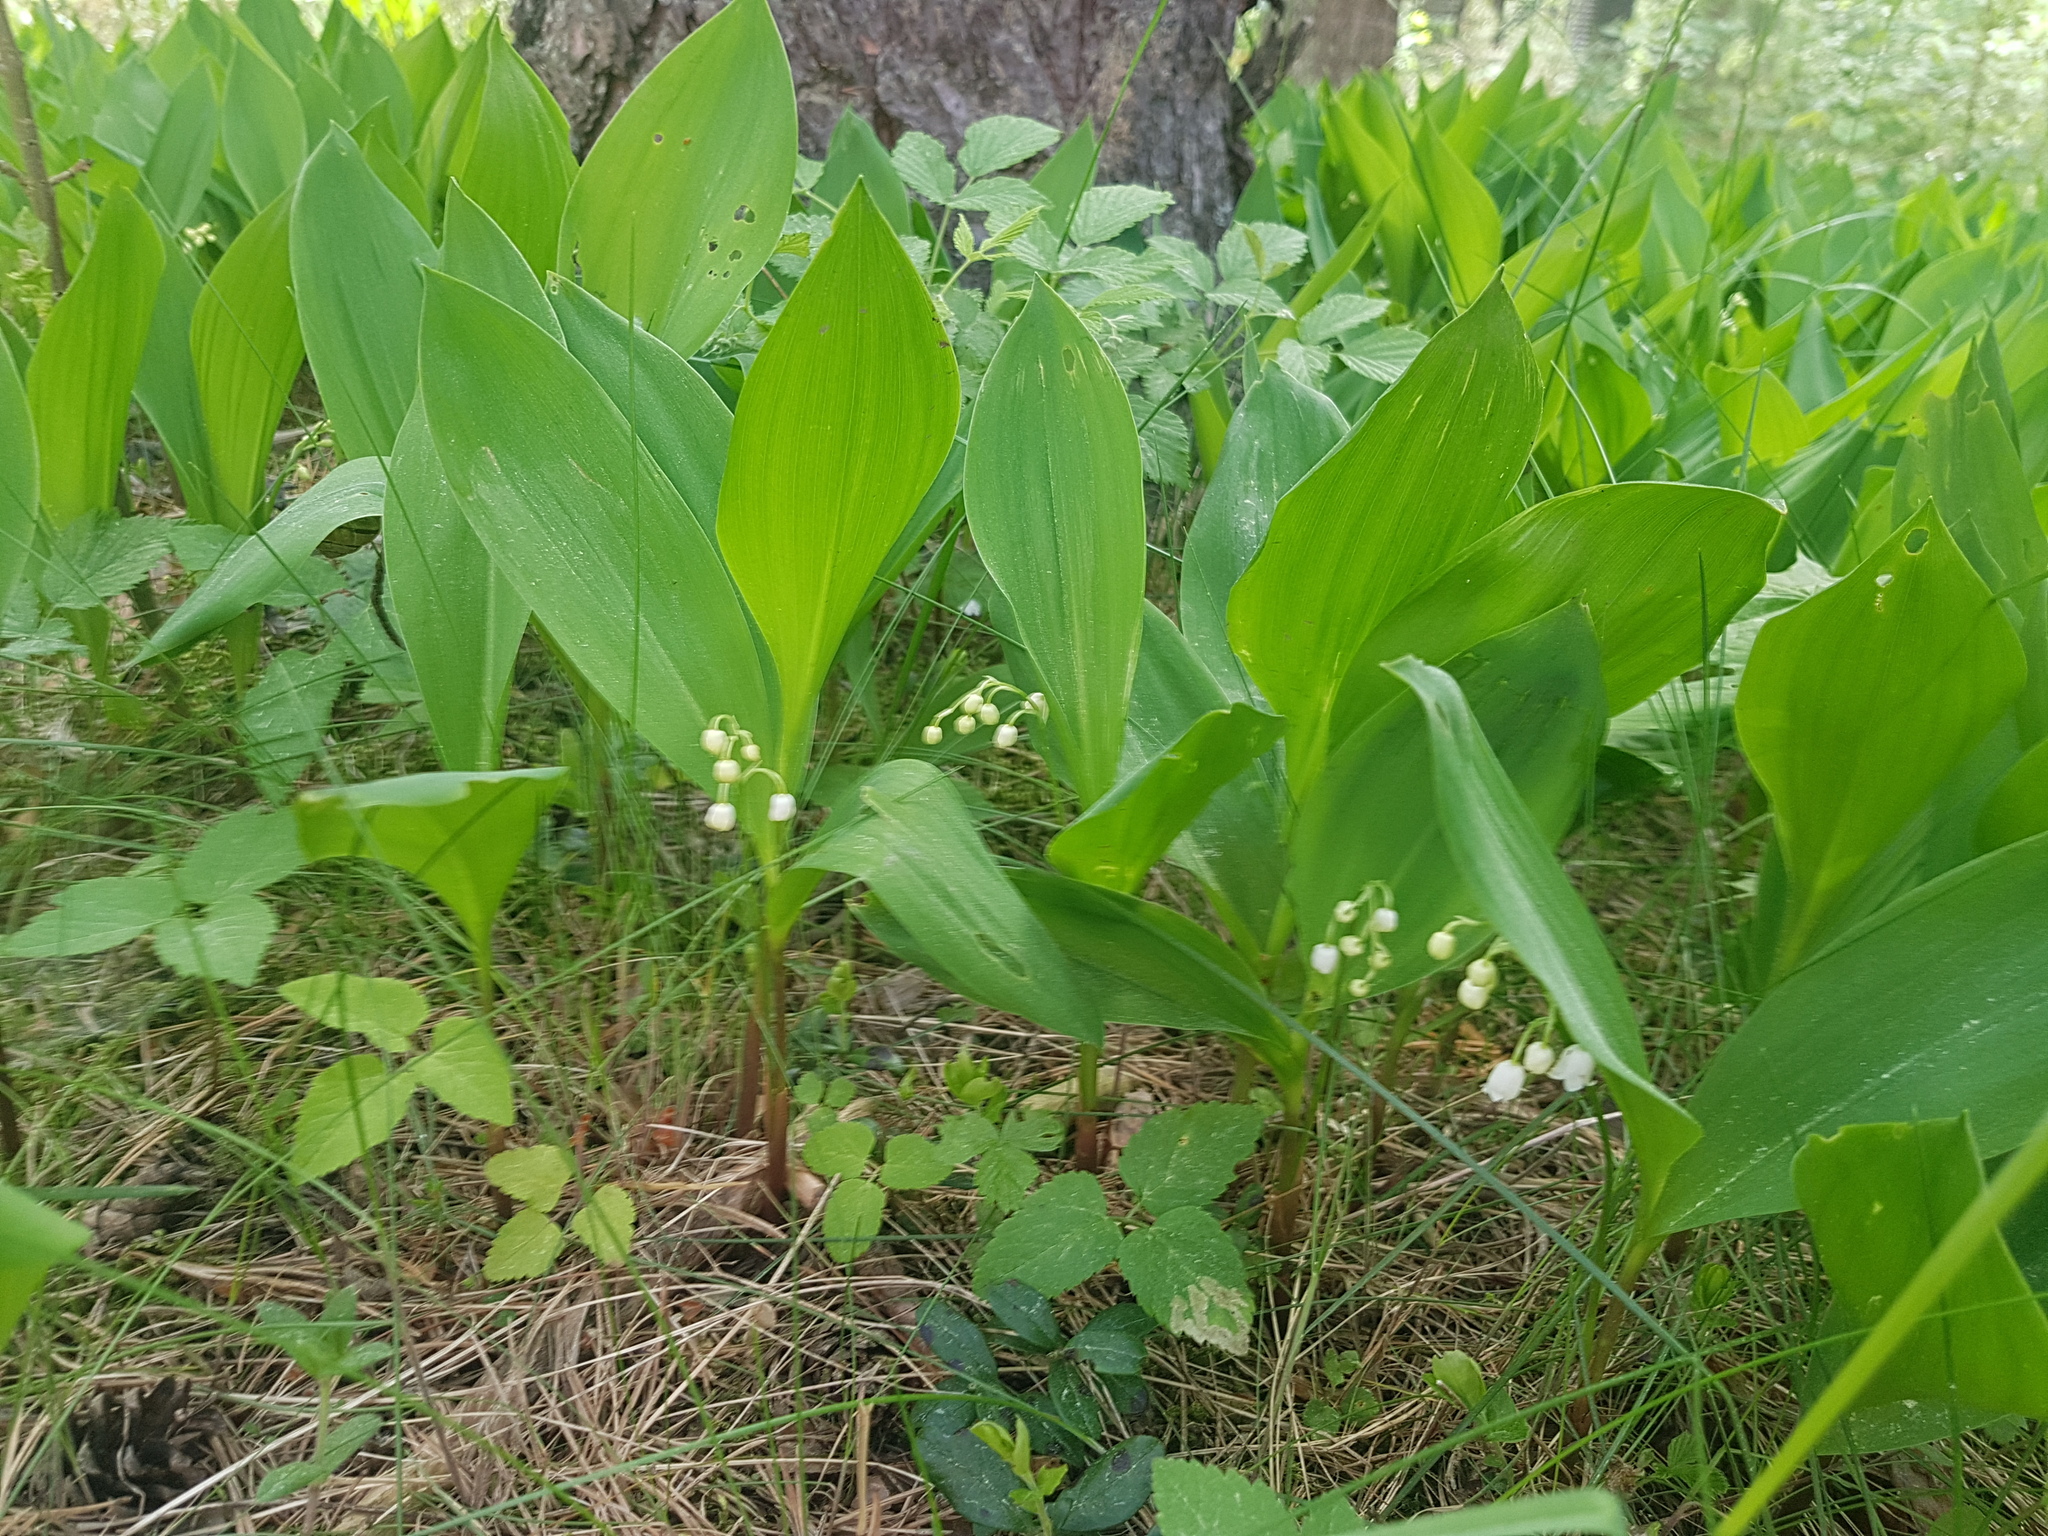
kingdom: Plantae
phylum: Tracheophyta
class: Liliopsida
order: Asparagales
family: Asparagaceae
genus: Convallaria
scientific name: Convallaria majalis
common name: Lily-of-the-valley
